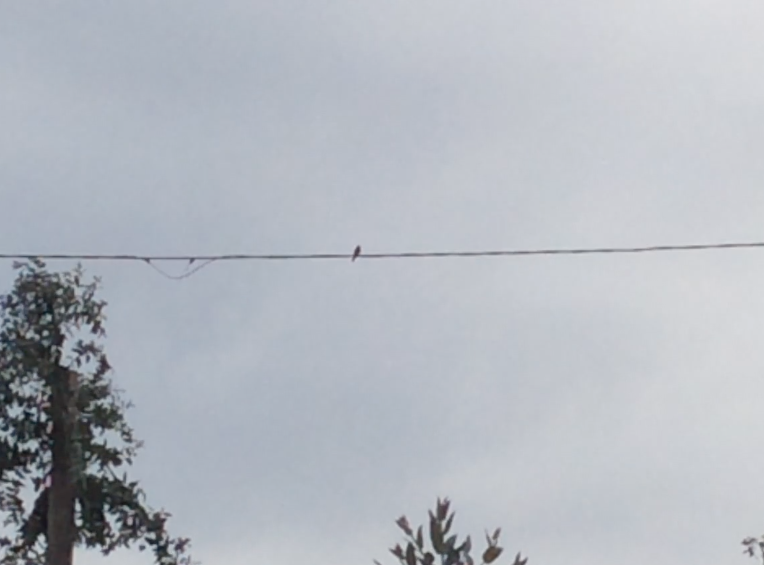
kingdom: Animalia
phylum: Chordata
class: Aves
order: Passeriformes
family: Tyrannidae
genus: Sayornis
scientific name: Sayornis nigricans
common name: Black phoebe
